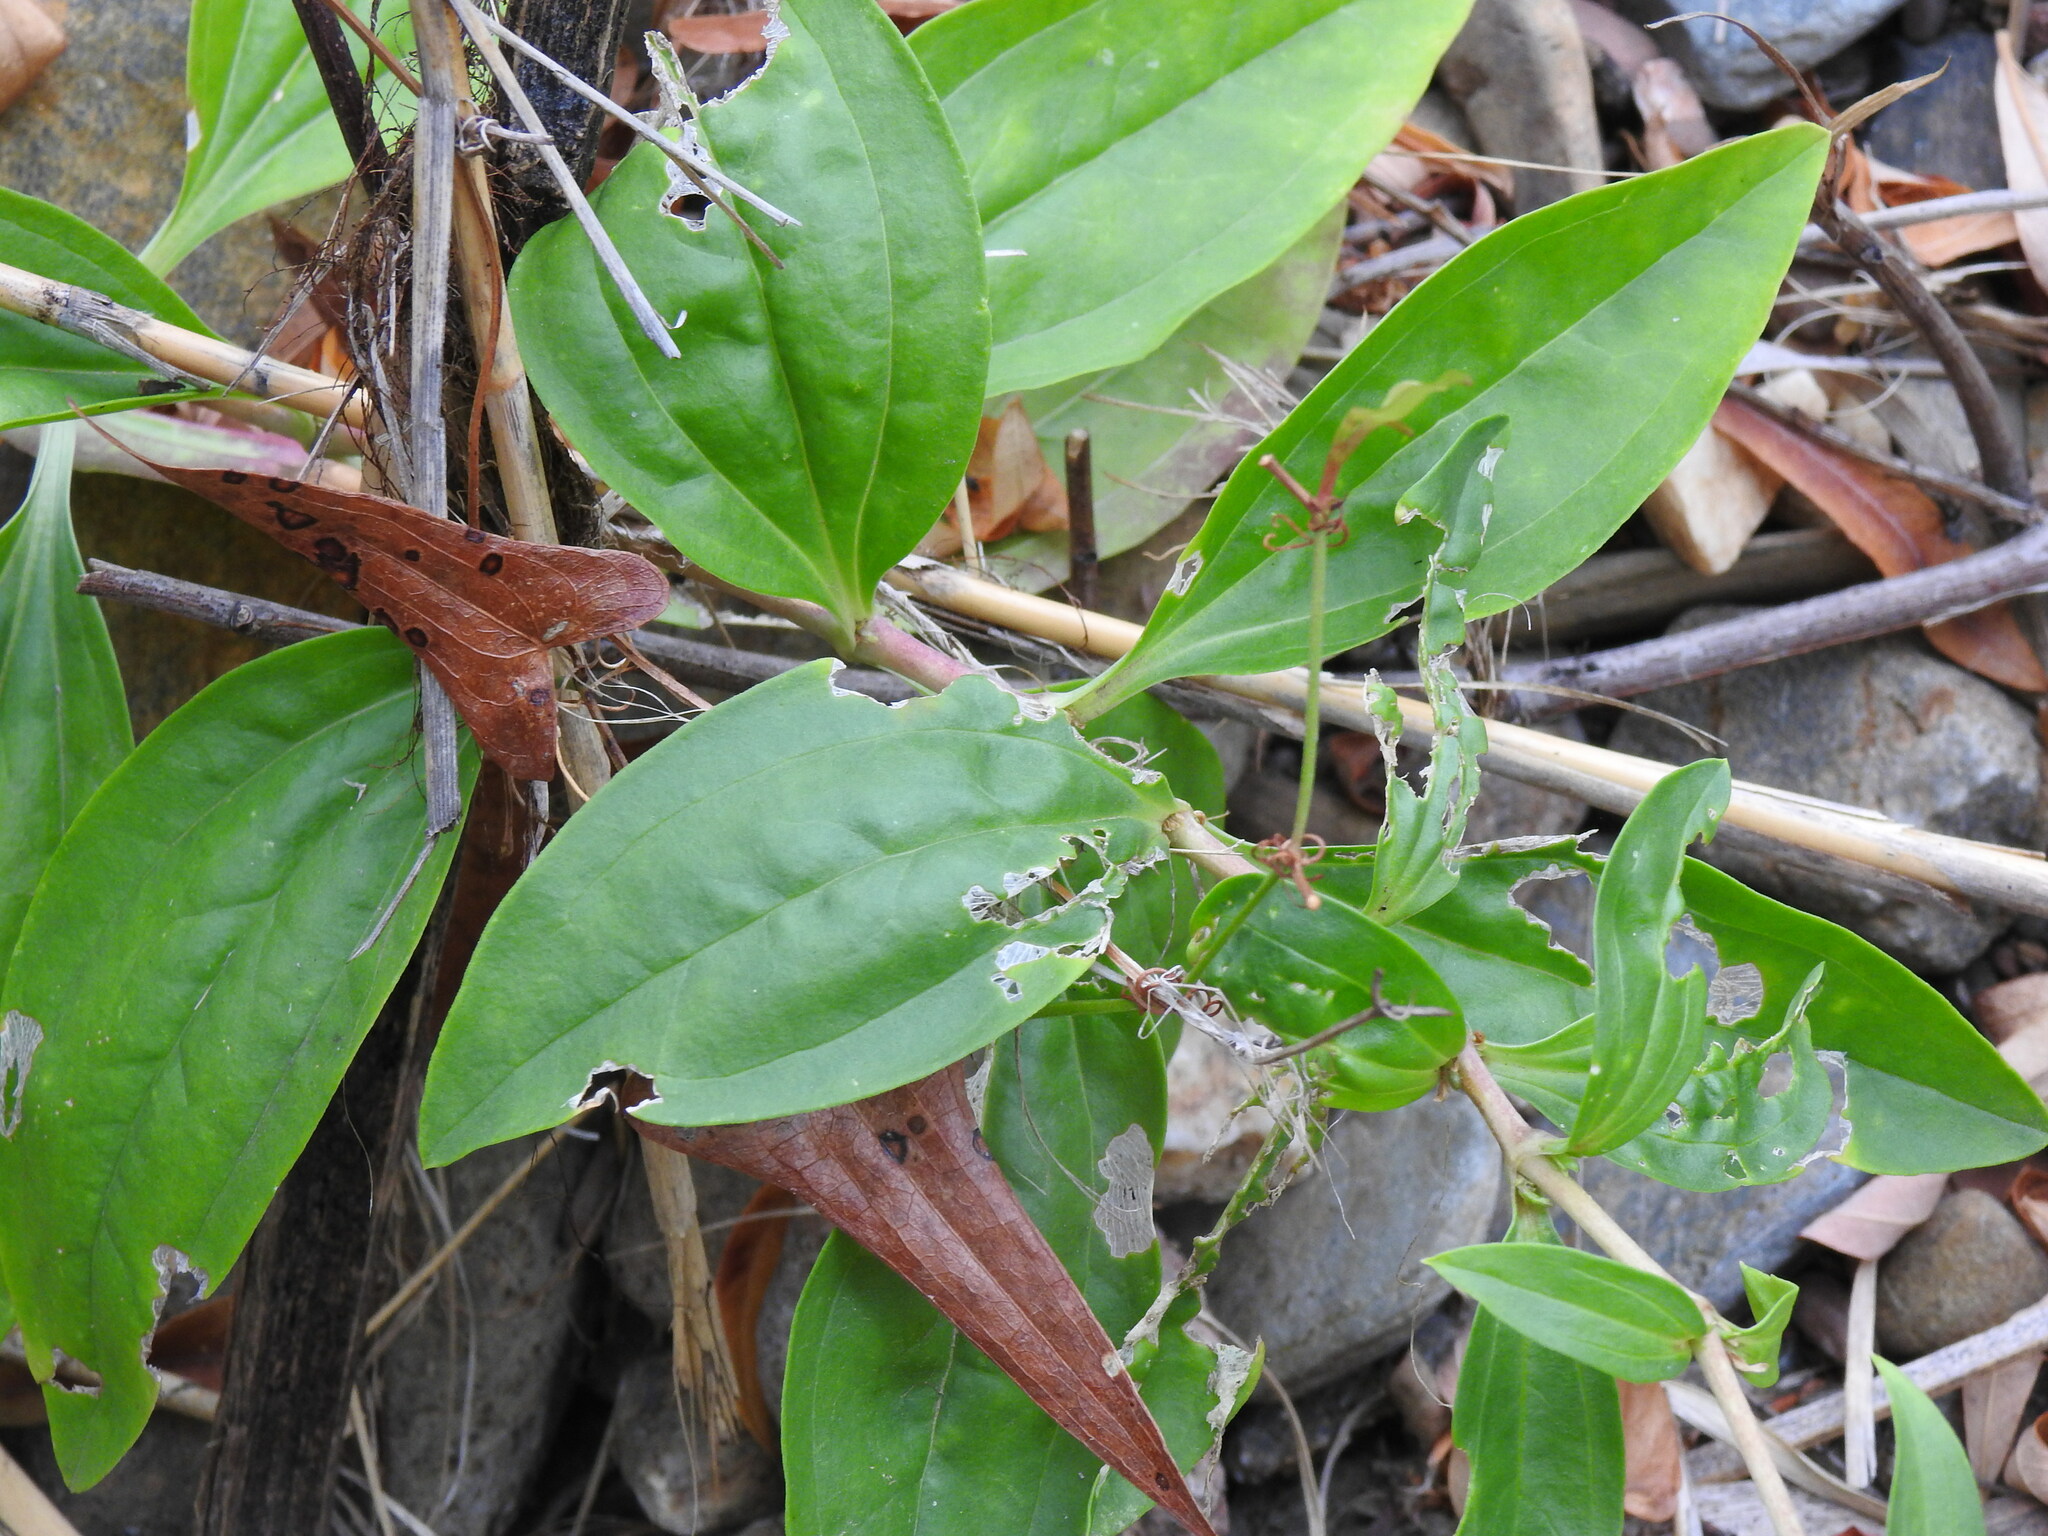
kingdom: Plantae
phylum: Tracheophyta
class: Magnoliopsida
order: Caryophyllales
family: Caryophyllaceae
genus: Saponaria
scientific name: Saponaria officinalis
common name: Soapwort
